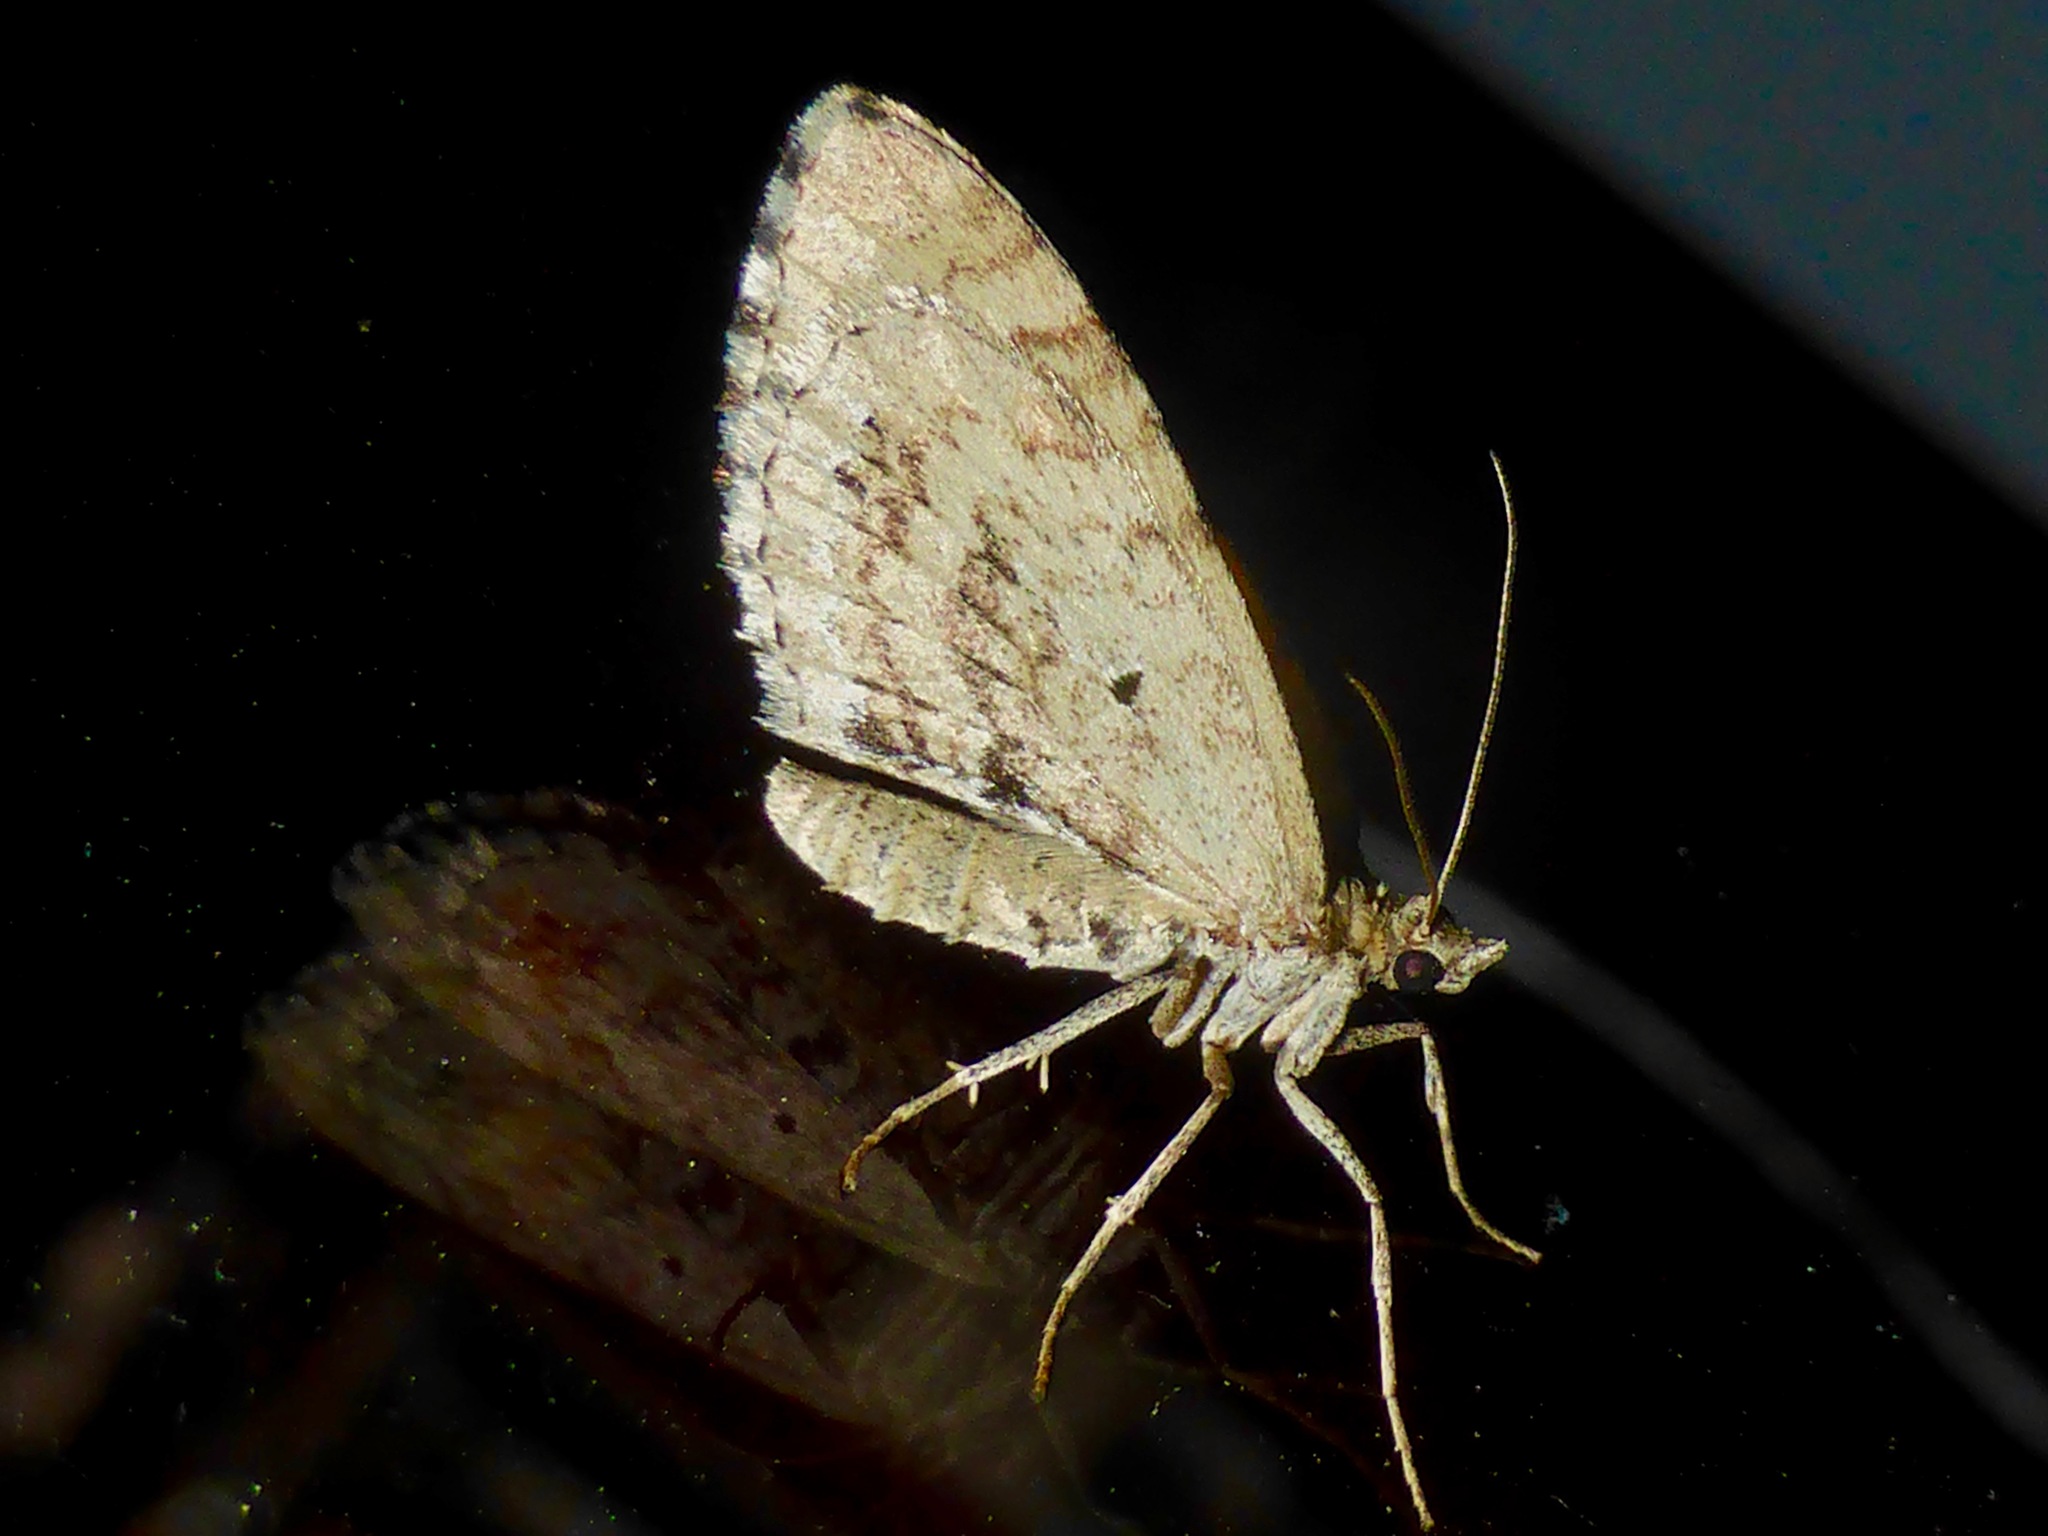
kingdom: Animalia
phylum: Arthropoda
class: Insecta
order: Lepidoptera
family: Geometridae
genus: Asaphodes
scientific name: Asaphodes aegrota
